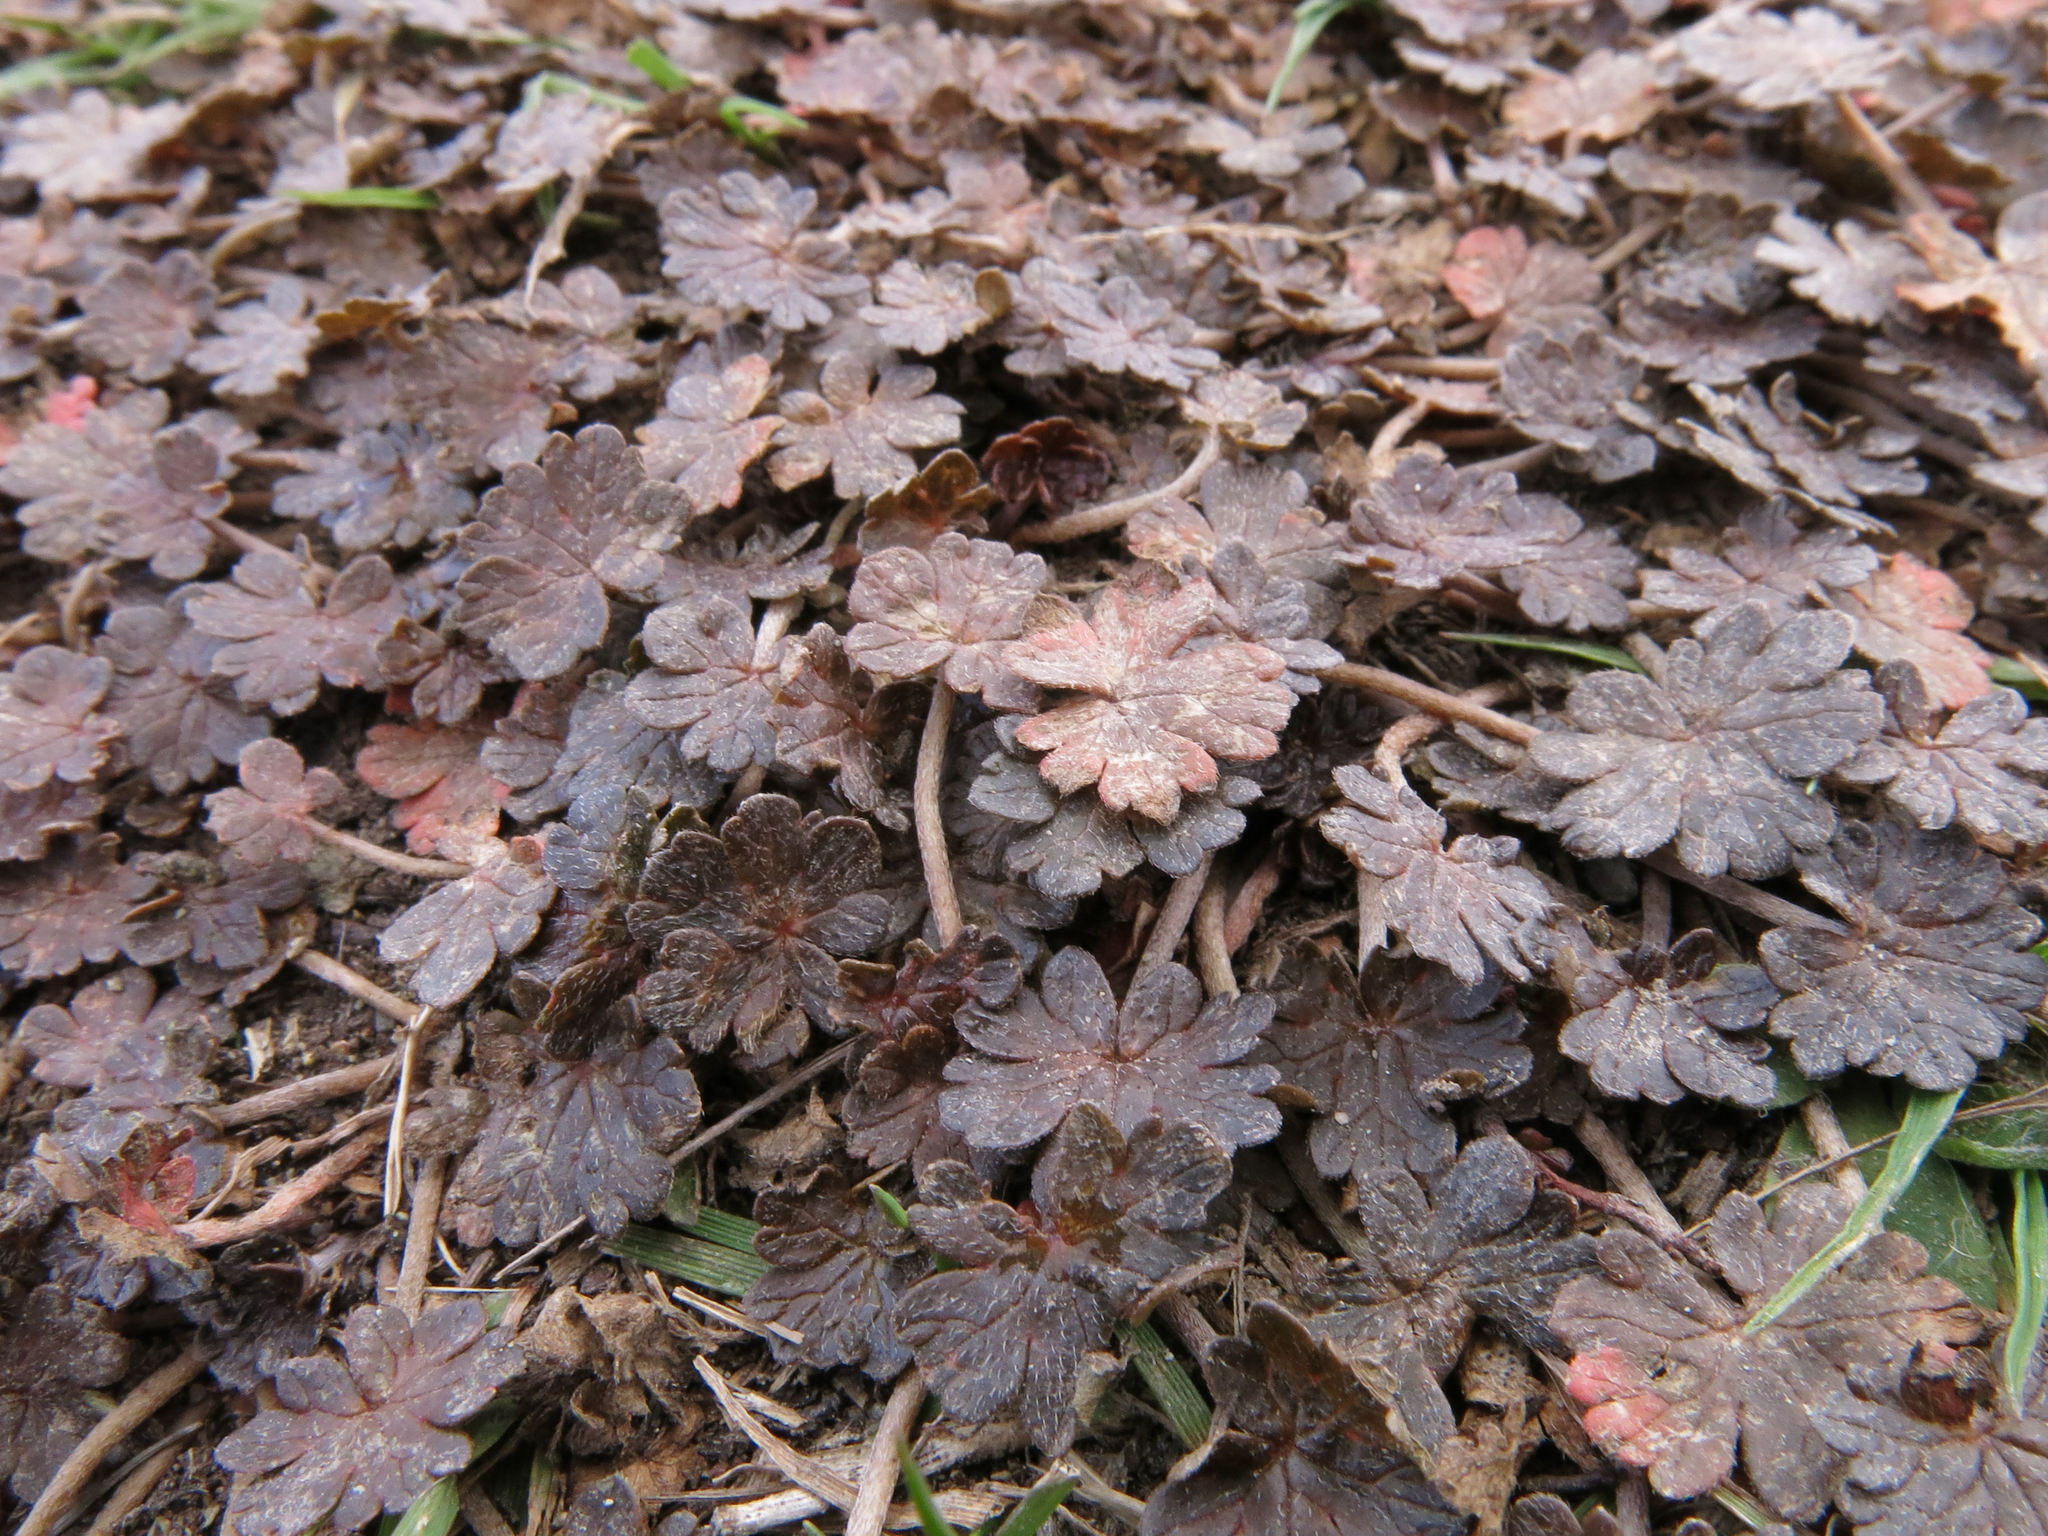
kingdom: Plantae
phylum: Tracheophyta
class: Magnoliopsida
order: Geraniales
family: Geraniaceae
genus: Geranium
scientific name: Geranium brevicaule
